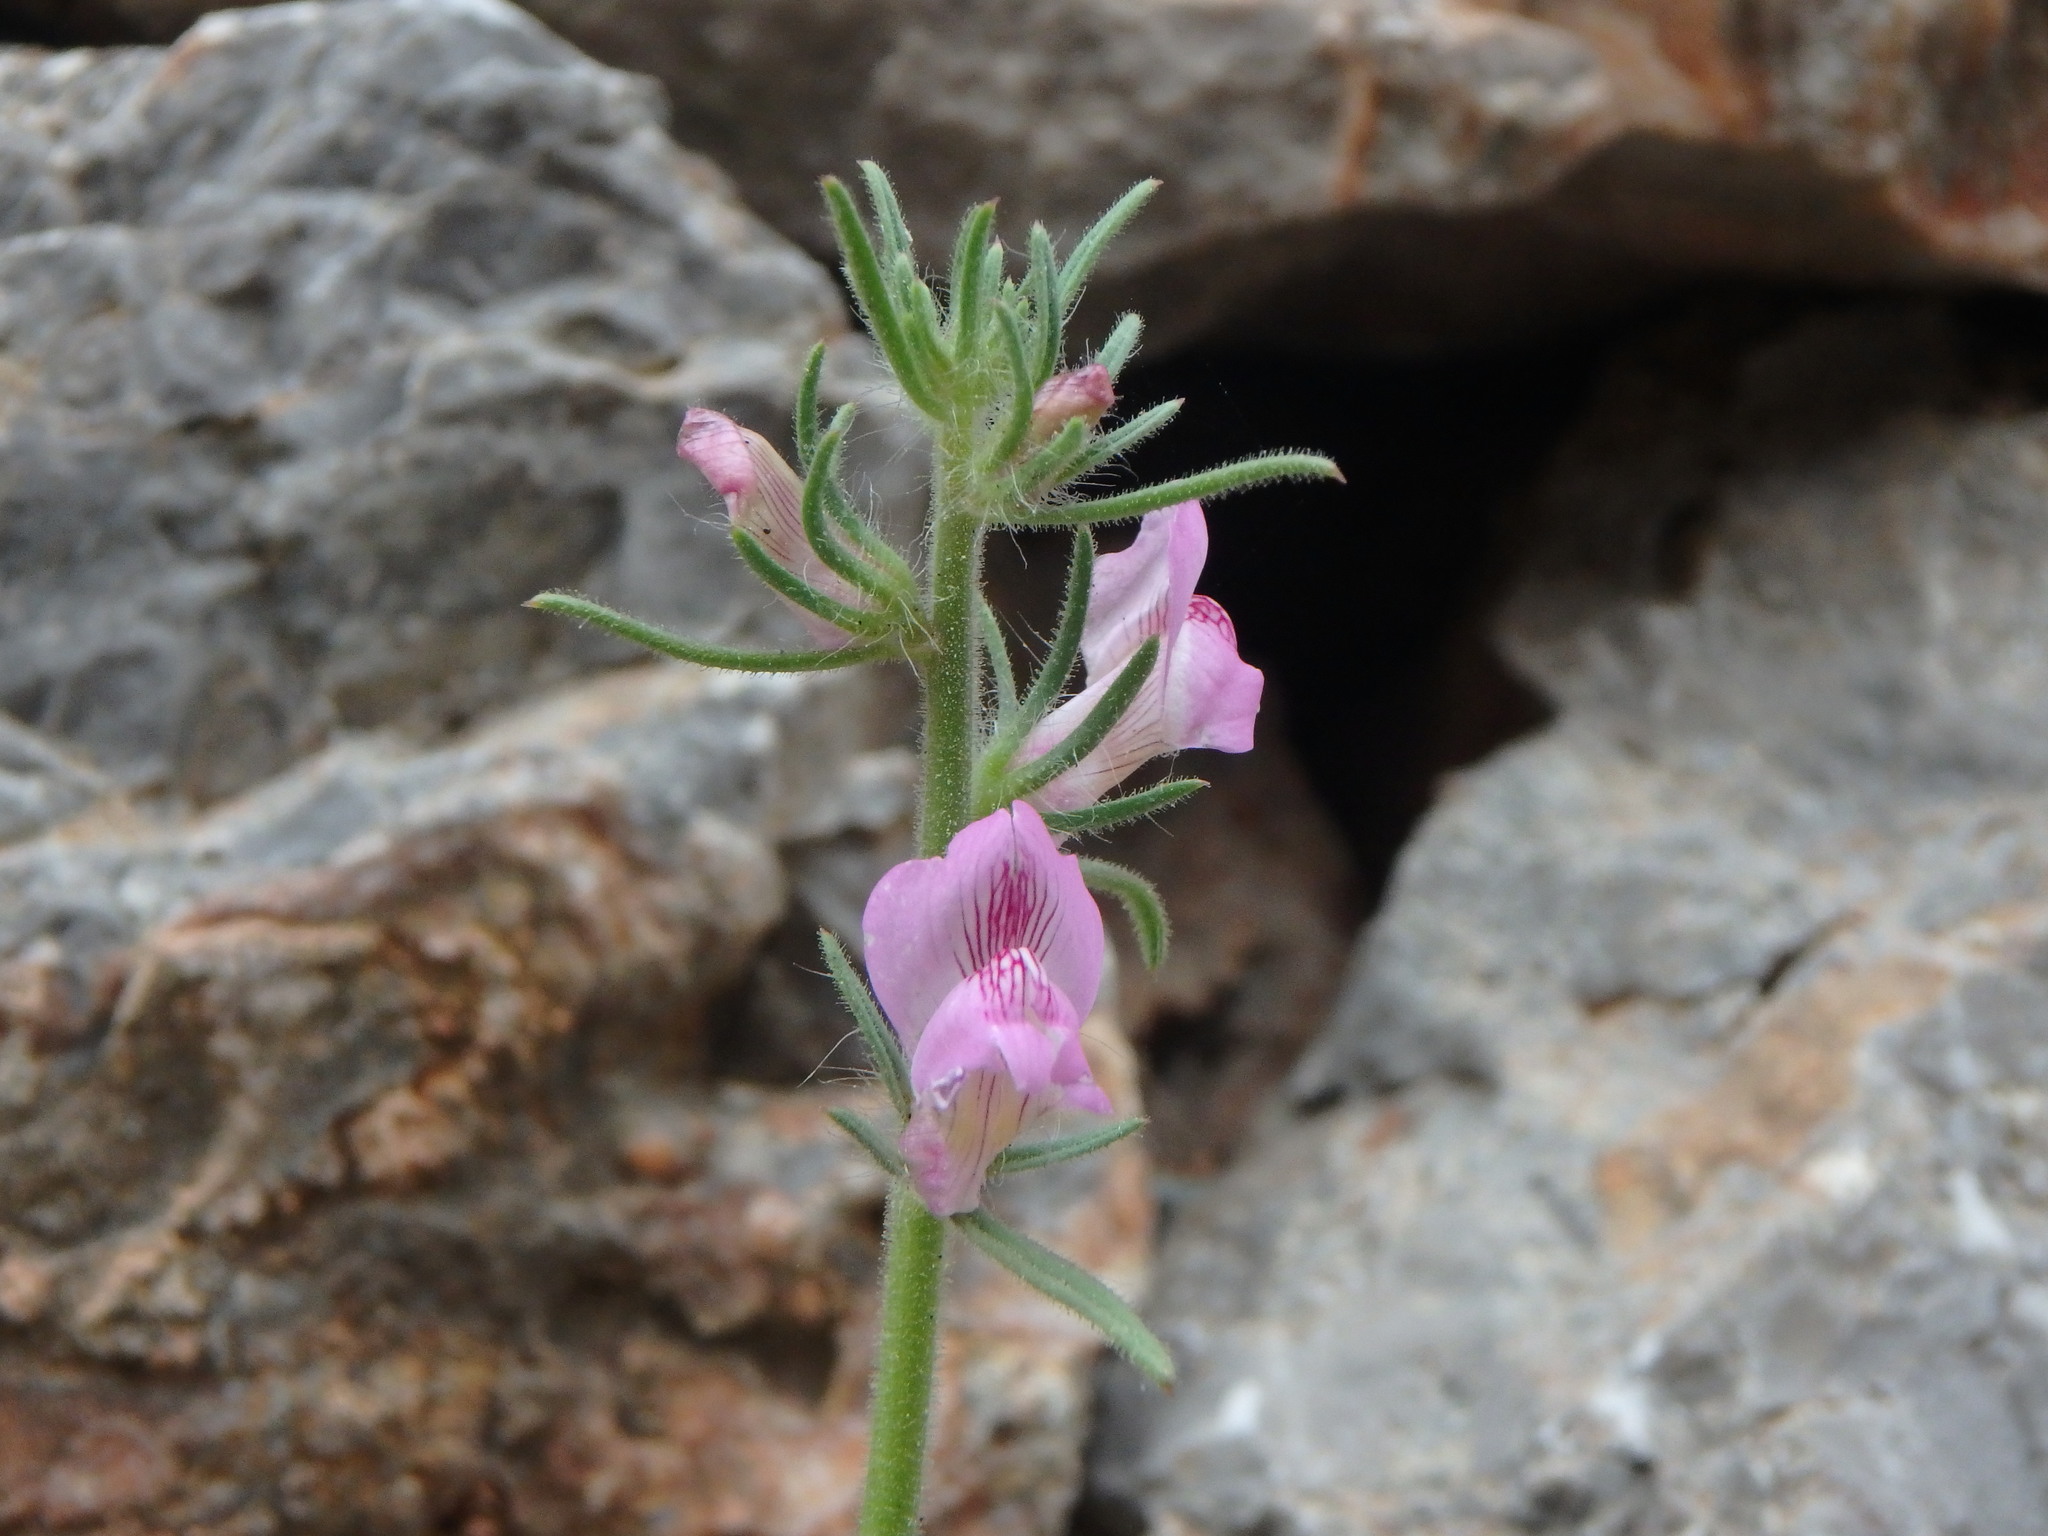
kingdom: Plantae
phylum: Tracheophyta
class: Magnoliopsida
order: Lamiales
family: Plantaginaceae
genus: Misopates
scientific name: Misopates orontium
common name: Weasel's-snout
